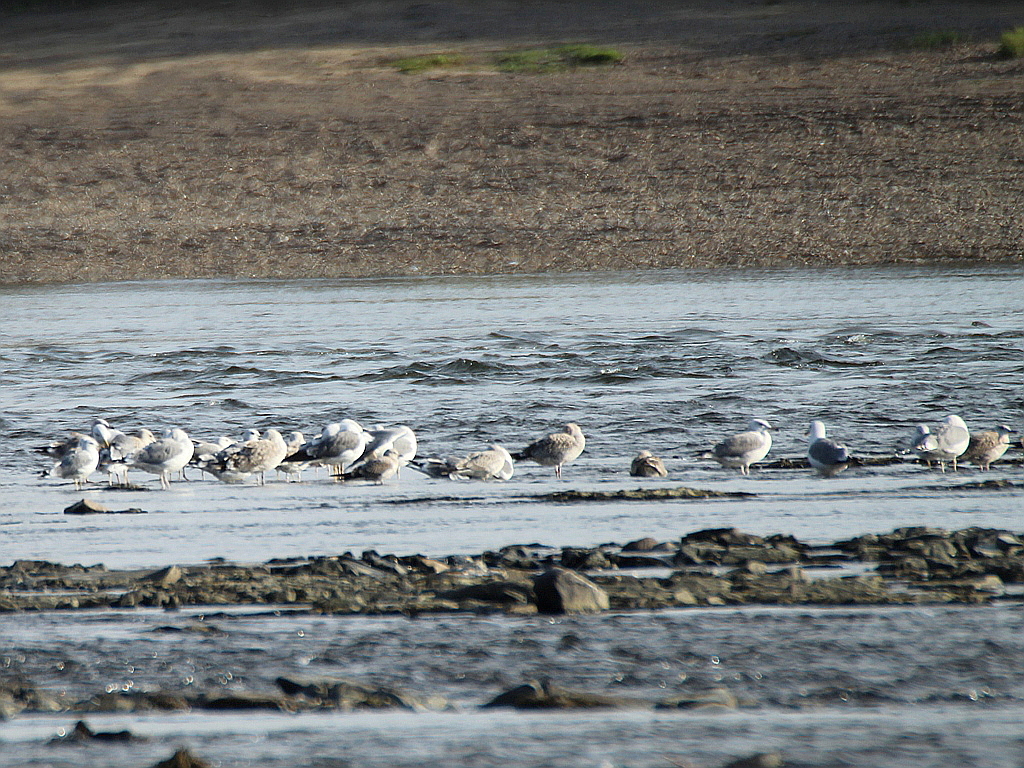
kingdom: Animalia
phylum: Chordata
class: Aves
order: Charadriiformes
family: Laridae
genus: Larus
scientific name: Larus fuscus
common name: Lesser black-backed gull
